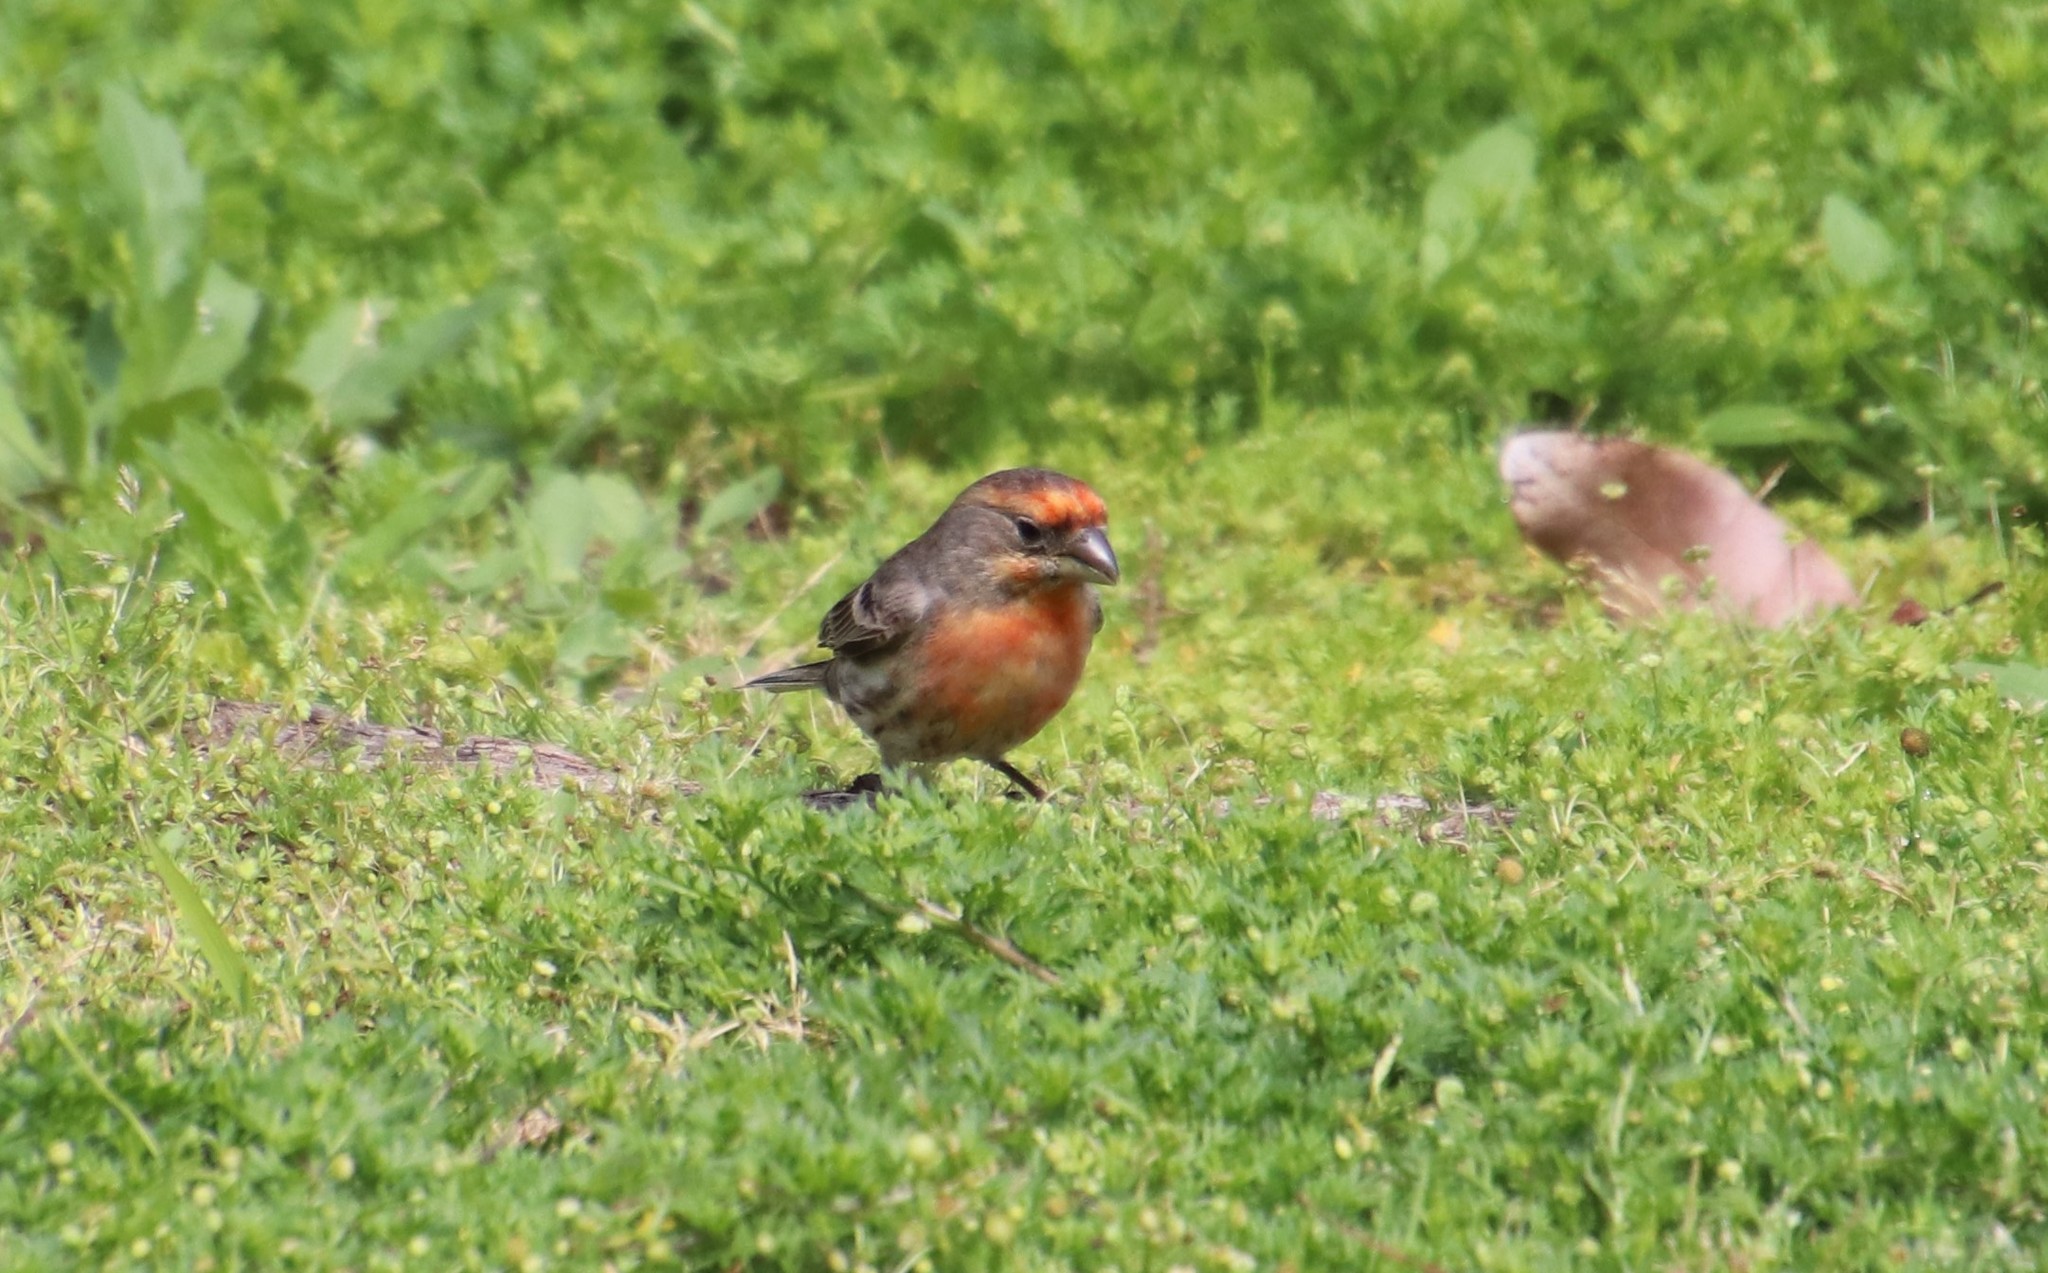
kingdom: Animalia
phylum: Chordata
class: Aves
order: Passeriformes
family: Fringillidae
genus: Haemorhous
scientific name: Haemorhous mexicanus
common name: House finch
